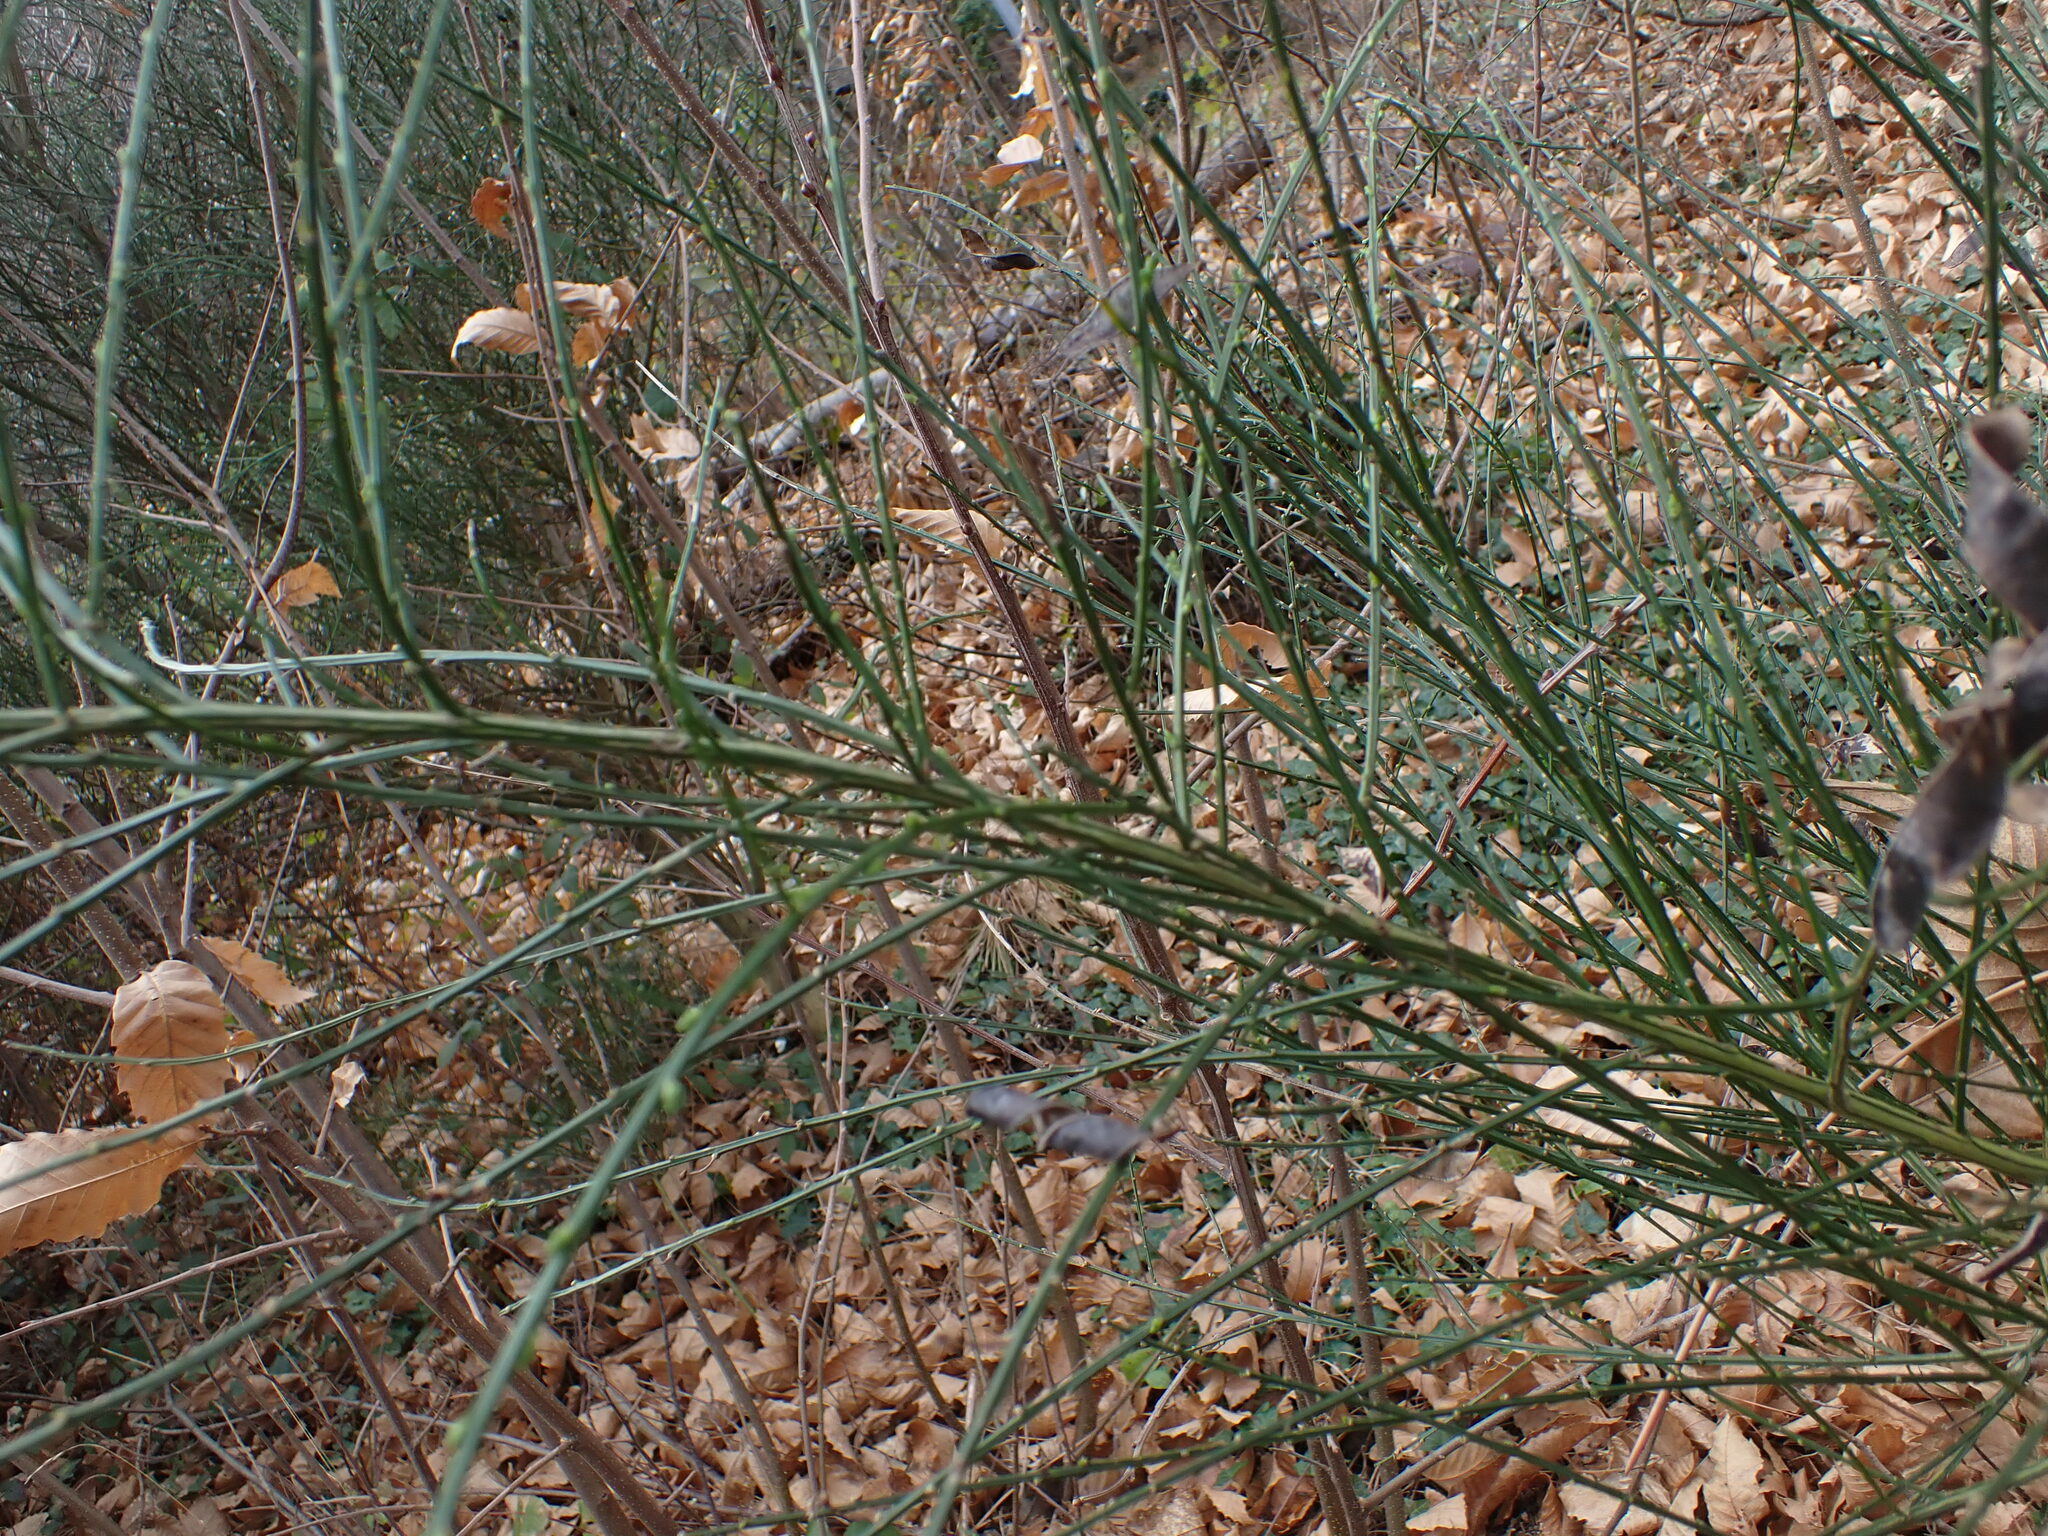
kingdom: Plantae
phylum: Tracheophyta
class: Magnoliopsida
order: Fabales
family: Fabaceae
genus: Cytisus
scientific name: Cytisus scoparius
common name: Scotch broom
